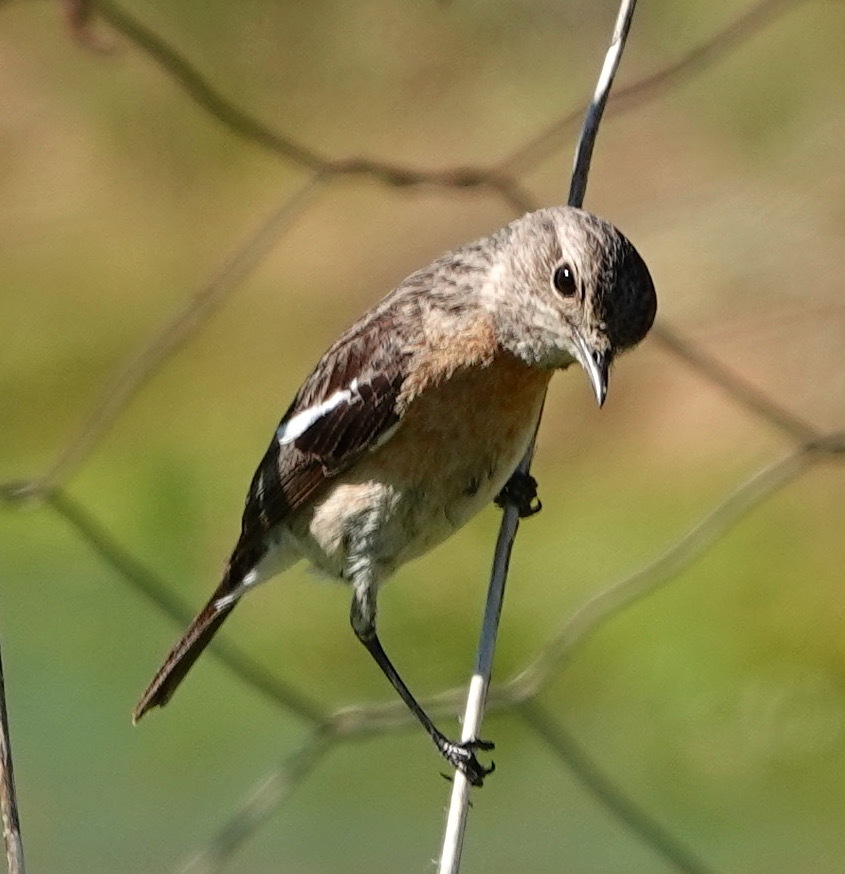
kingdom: Animalia
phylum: Chordata
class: Aves
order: Passeriformes
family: Muscicapidae
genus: Saxicola
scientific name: Saxicola torquatus
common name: African stonechat
